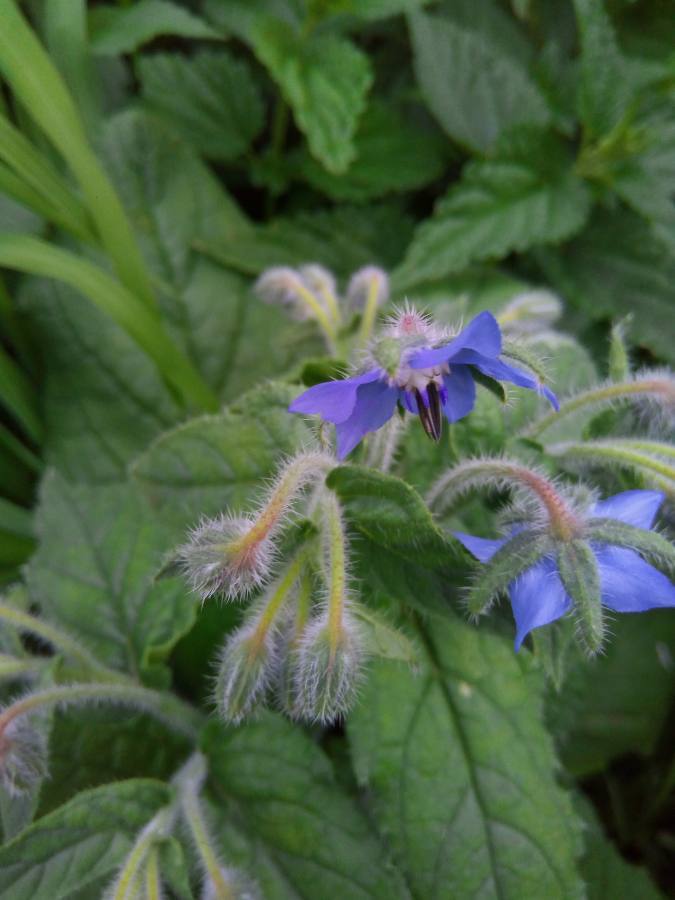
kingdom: Plantae
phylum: Tracheophyta
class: Magnoliopsida
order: Boraginales
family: Boraginaceae
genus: Borago
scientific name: Borago officinalis
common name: Borage
